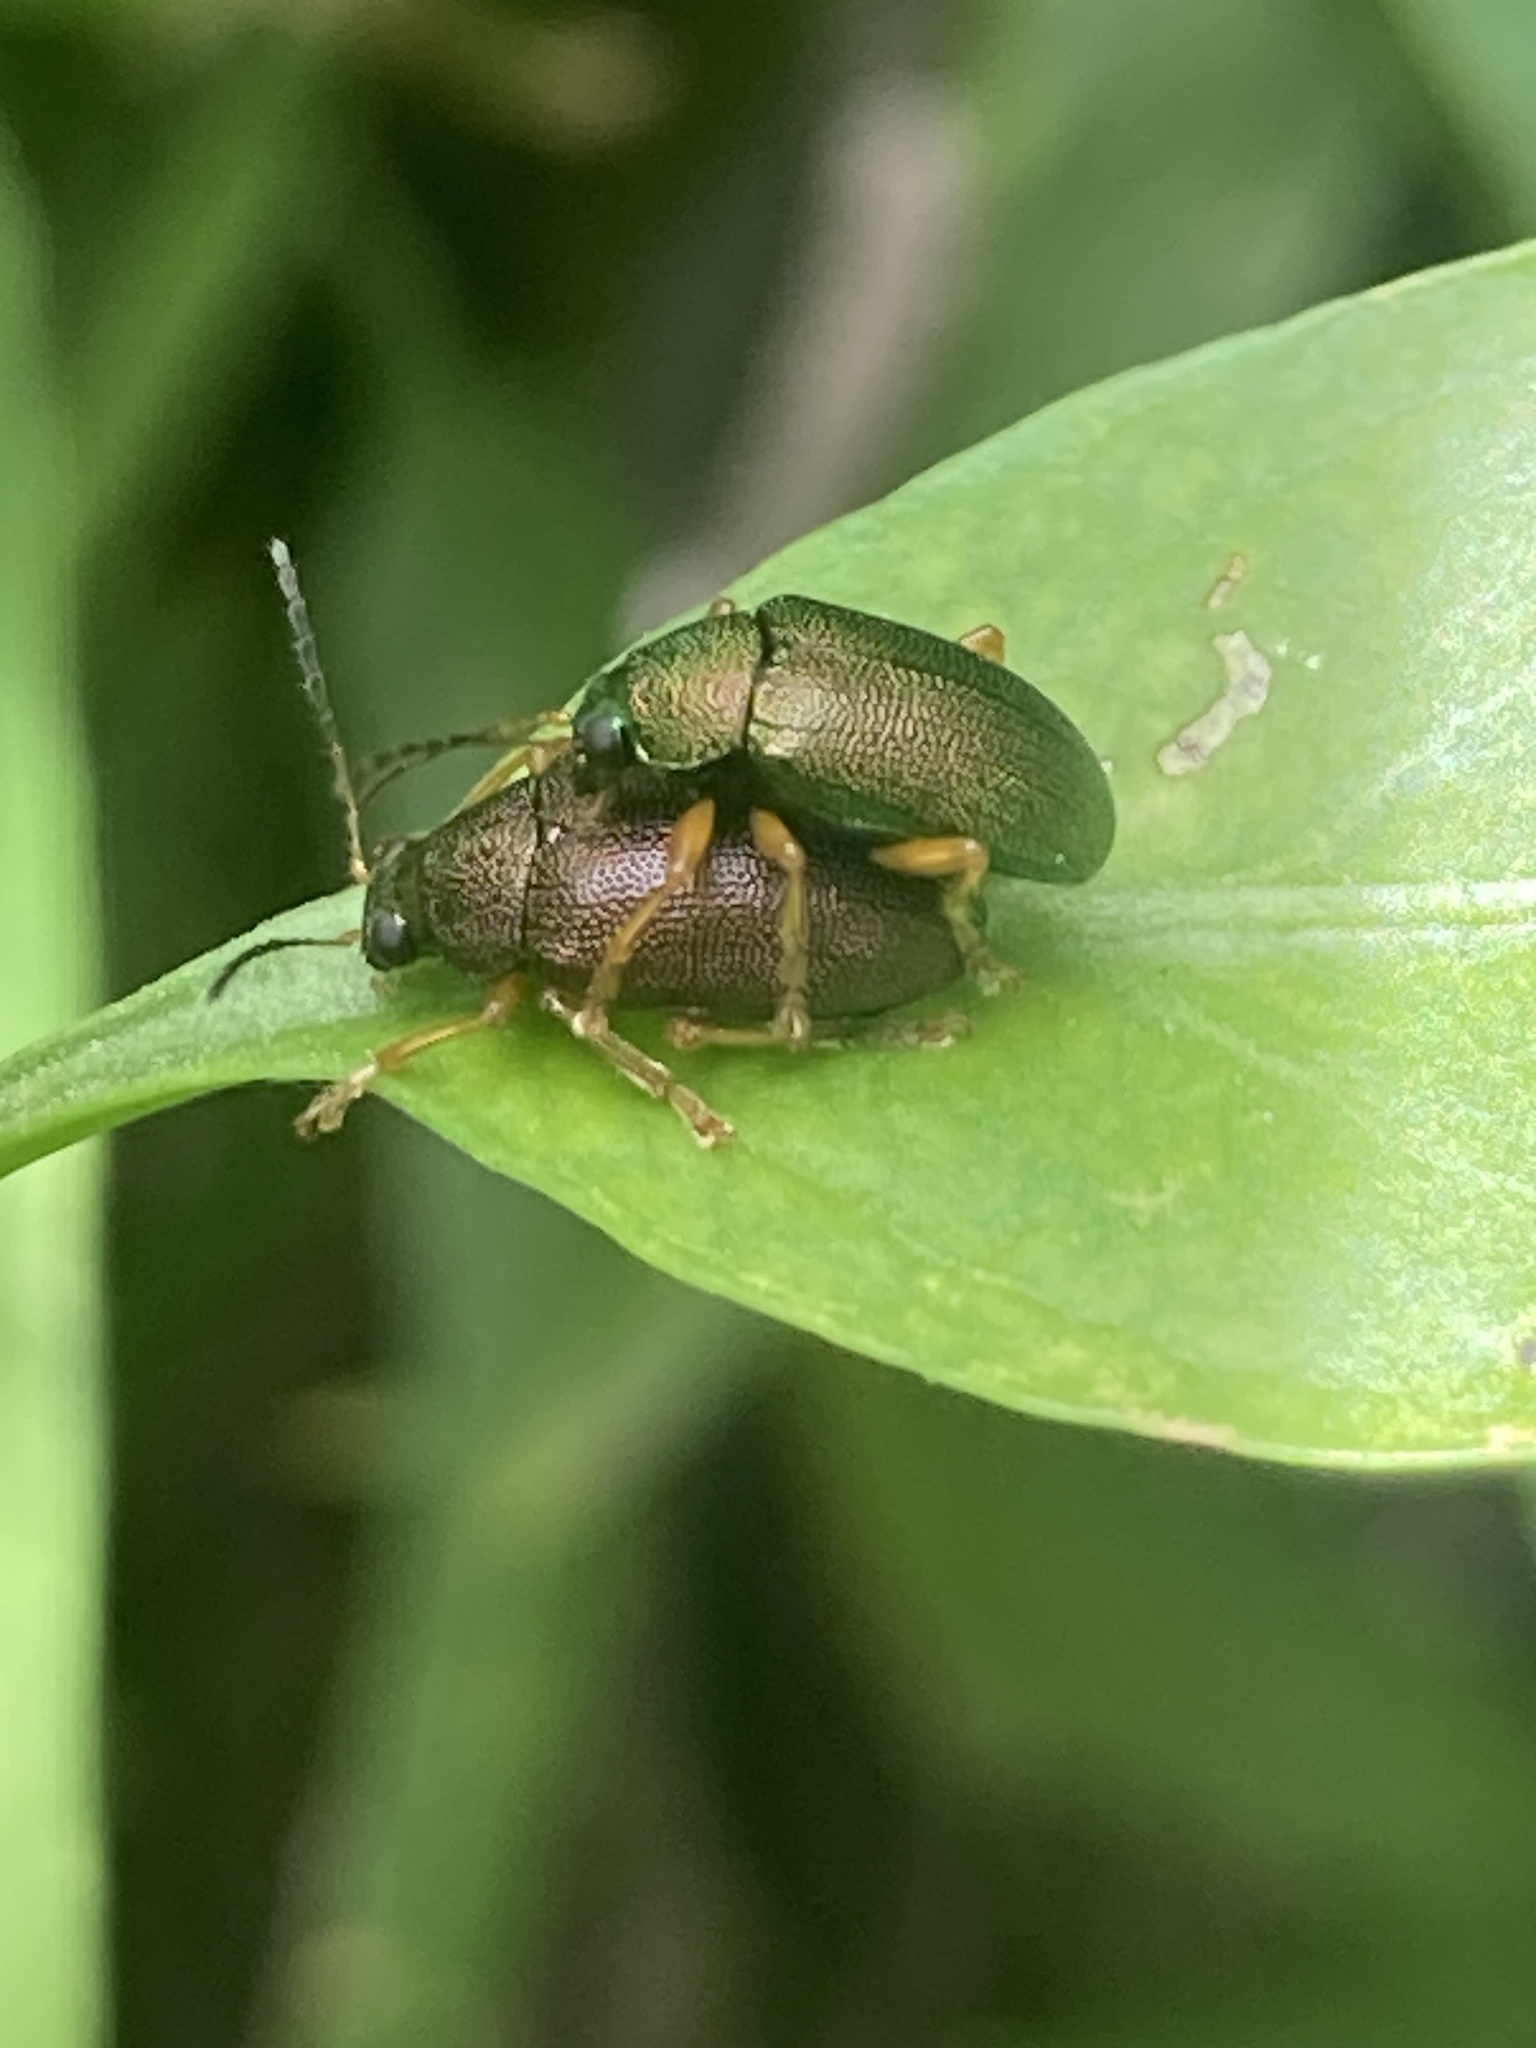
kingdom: Animalia
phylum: Arthropoda
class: Insecta
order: Coleoptera
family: Chrysomelidae
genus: Colaspis
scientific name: Colaspis
